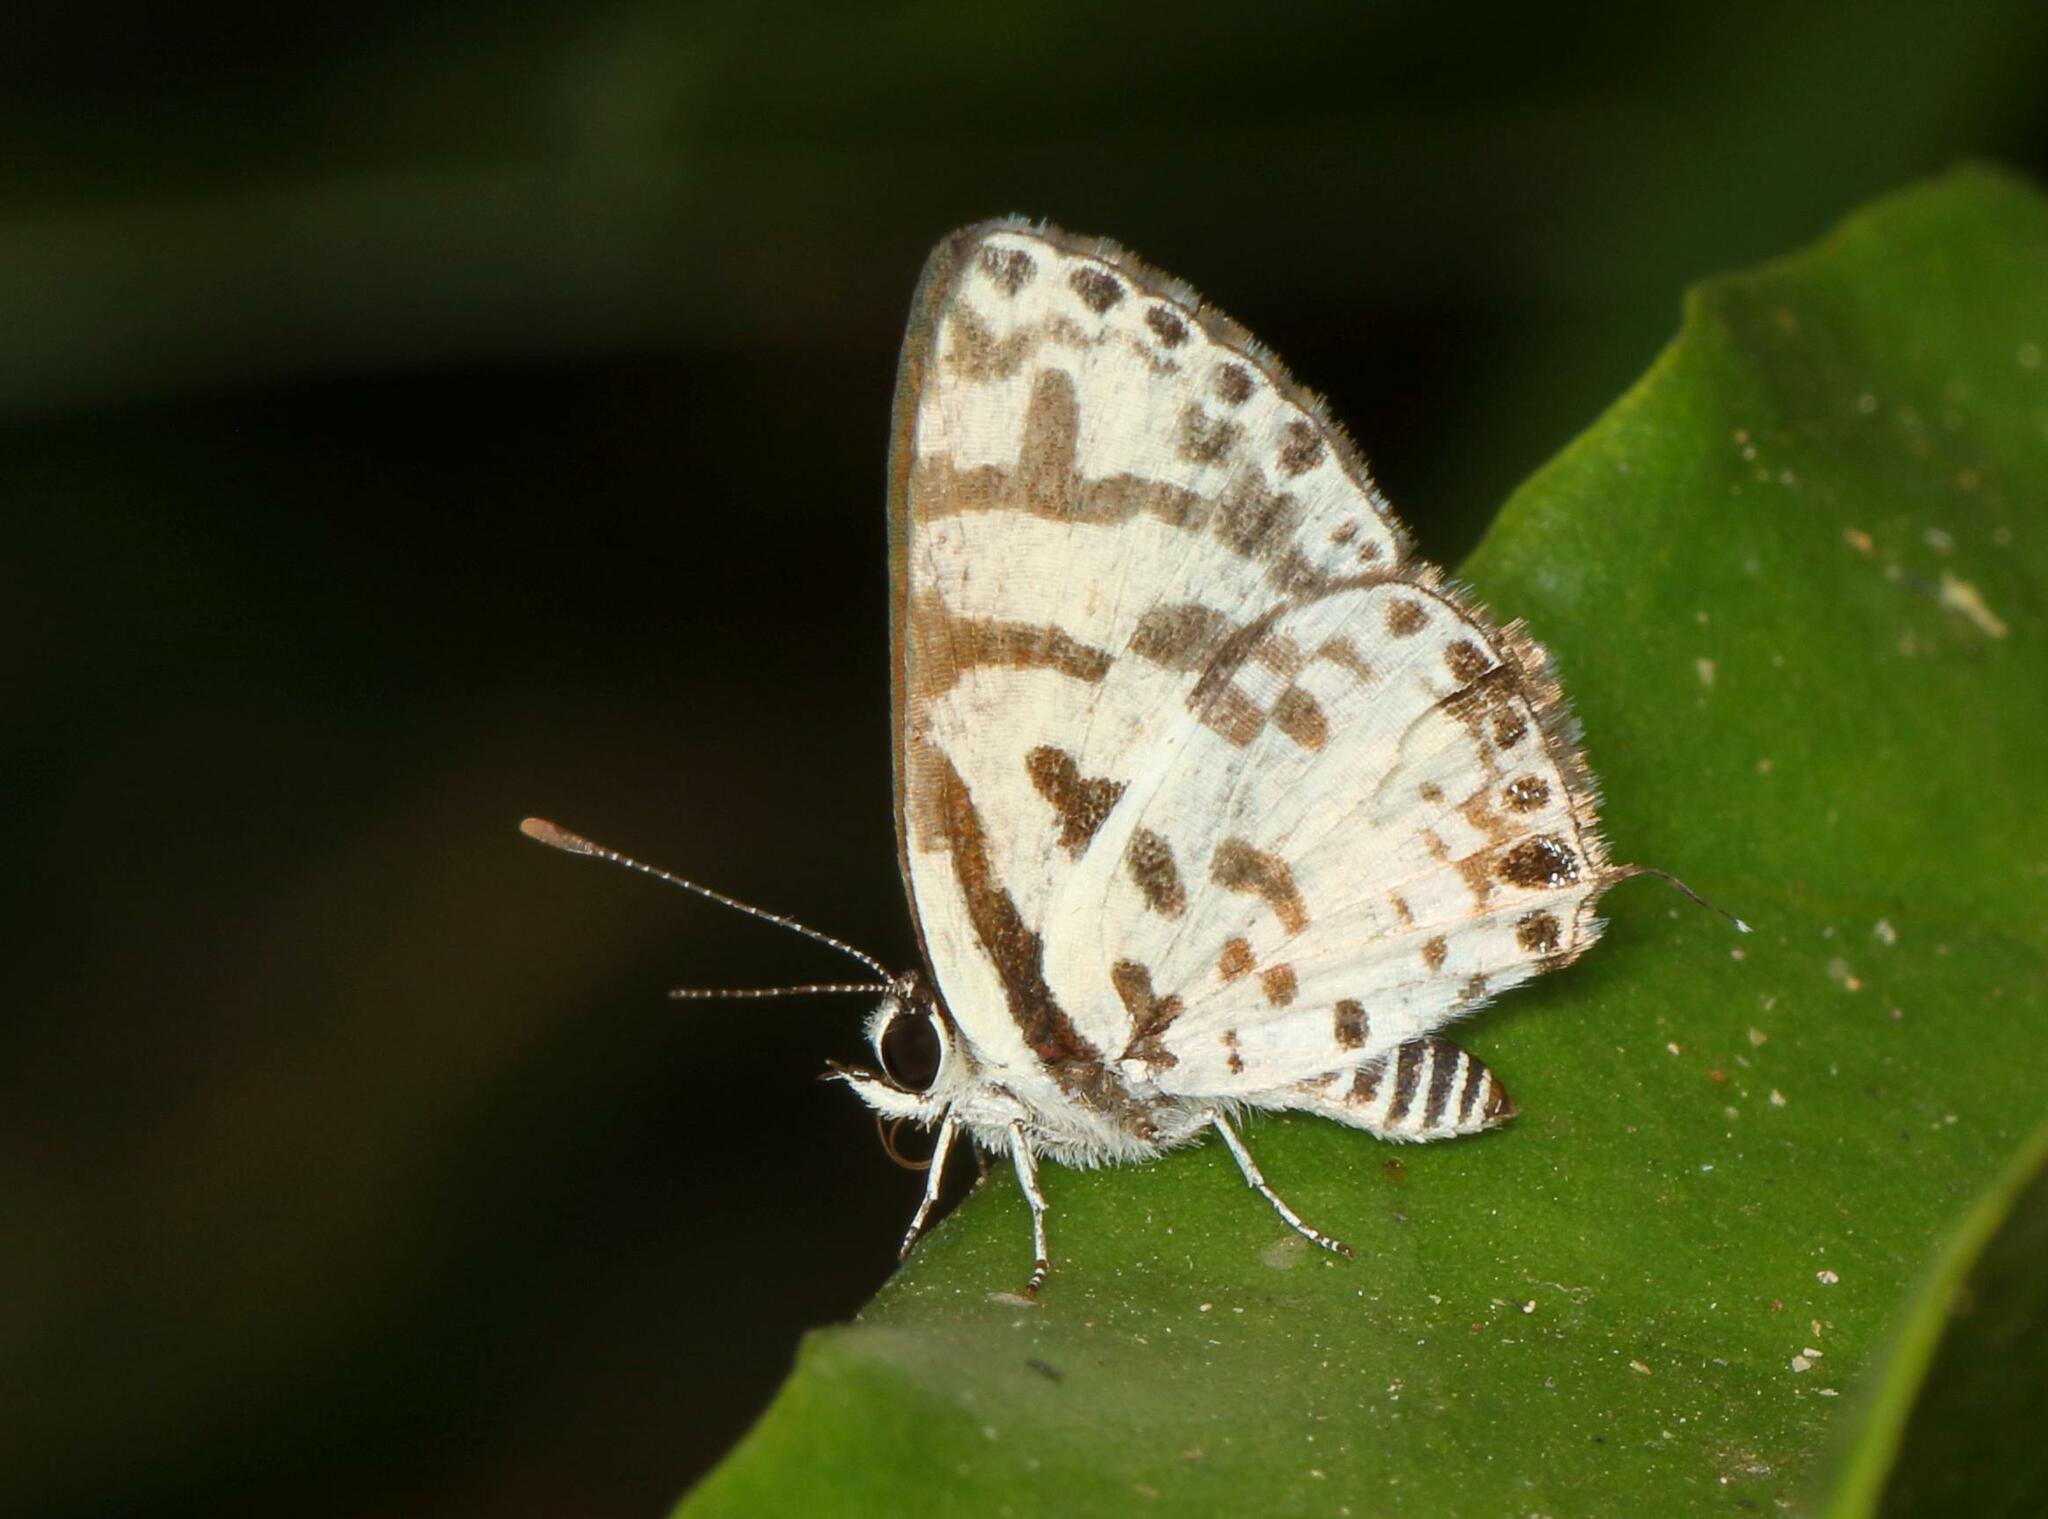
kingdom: Animalia
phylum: Arthropoda
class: Insecta
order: Lepidoptera
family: Lycaenidae
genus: Castalius
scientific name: Castalius melaena
